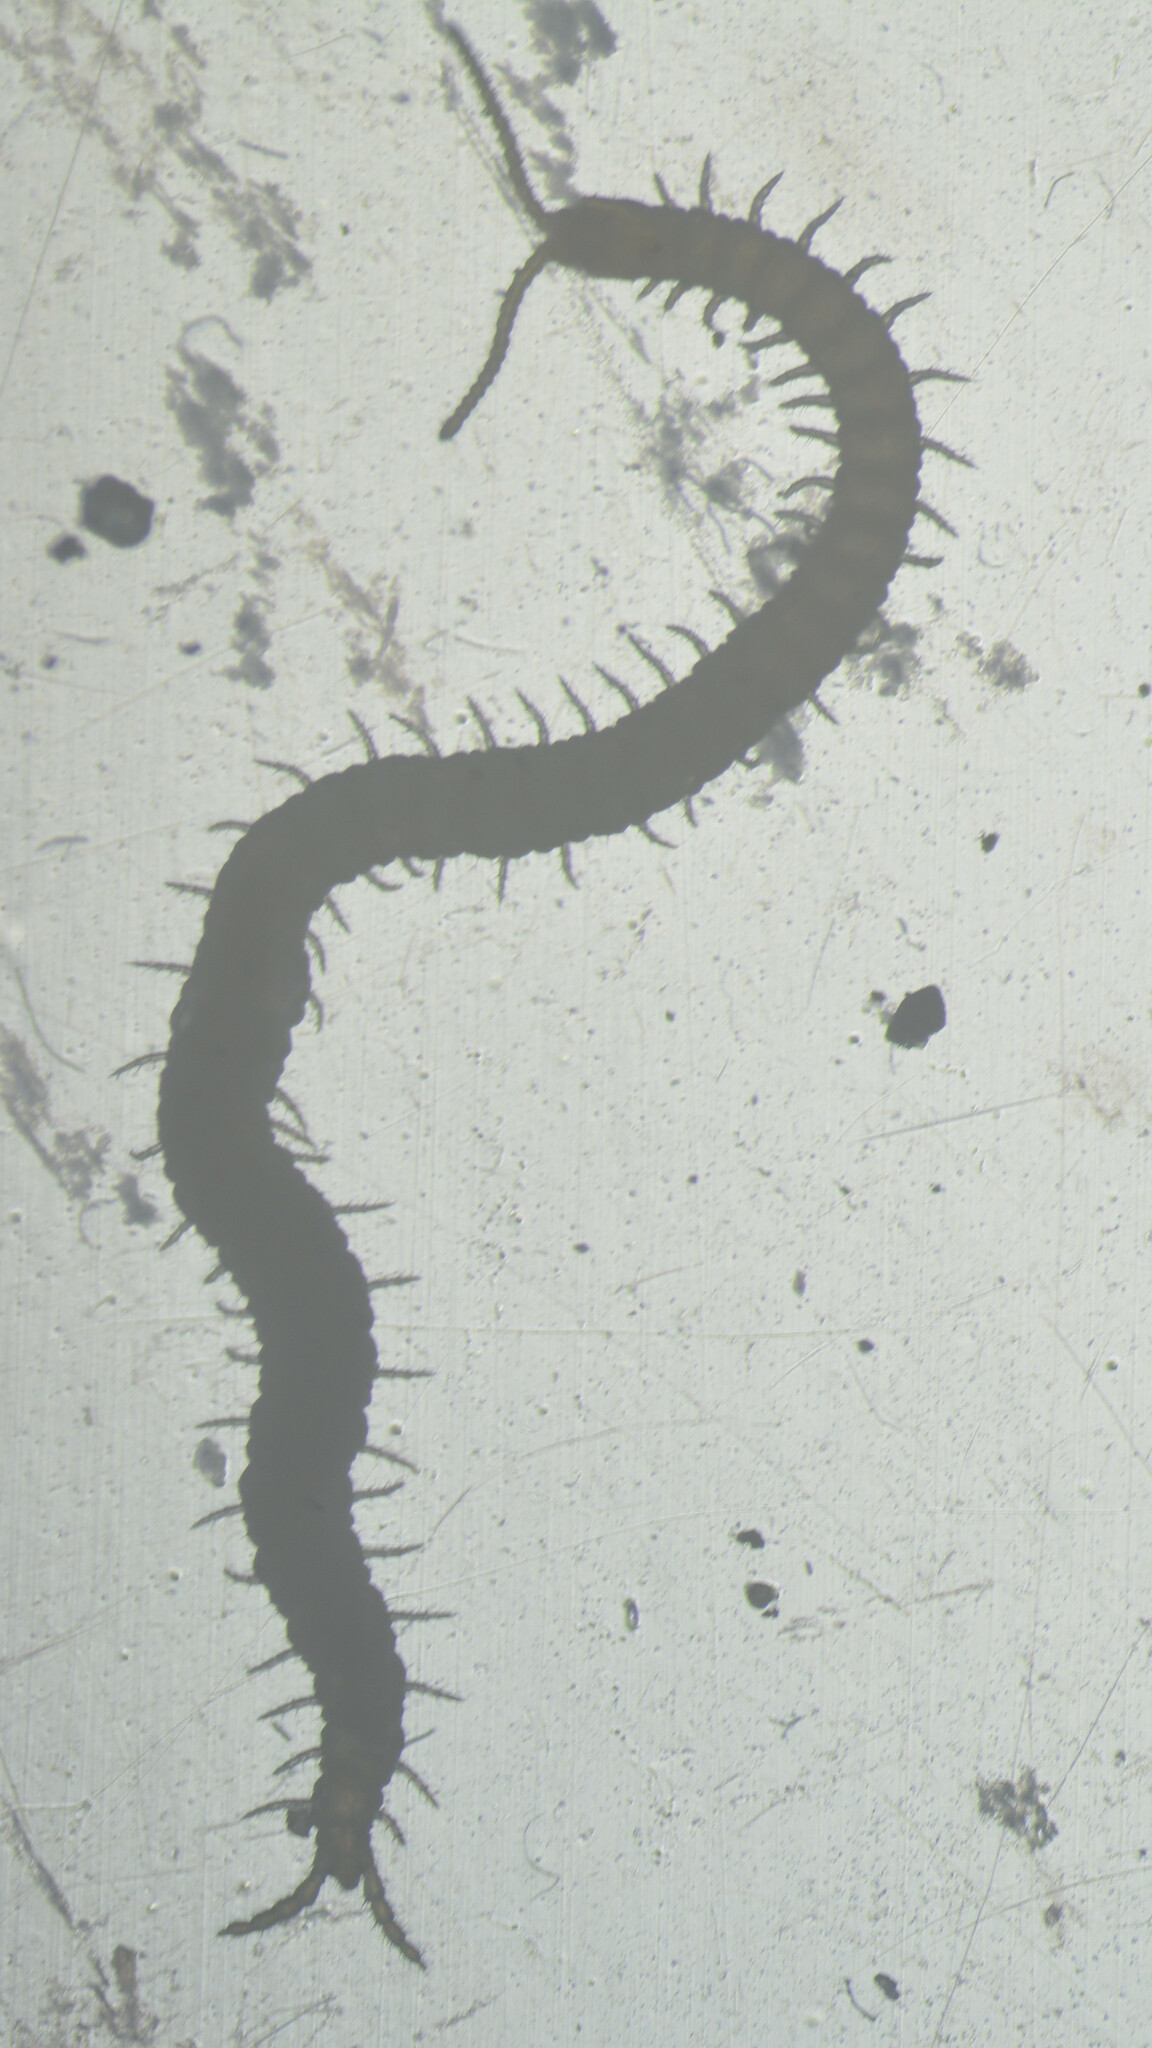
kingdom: Animalia
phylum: Arthropoda
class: Chilopoda
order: Geophilomorpha
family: Schendylidae
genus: Schendyla
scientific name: Schendyla nemorensis
